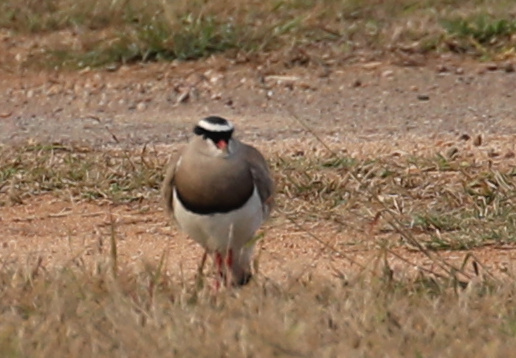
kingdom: Animalia
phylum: Chordata
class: Aves
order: Charadriiformes
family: Charadriidae
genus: Vanellus
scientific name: Vanellus coronatus
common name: Crowned lapwing
